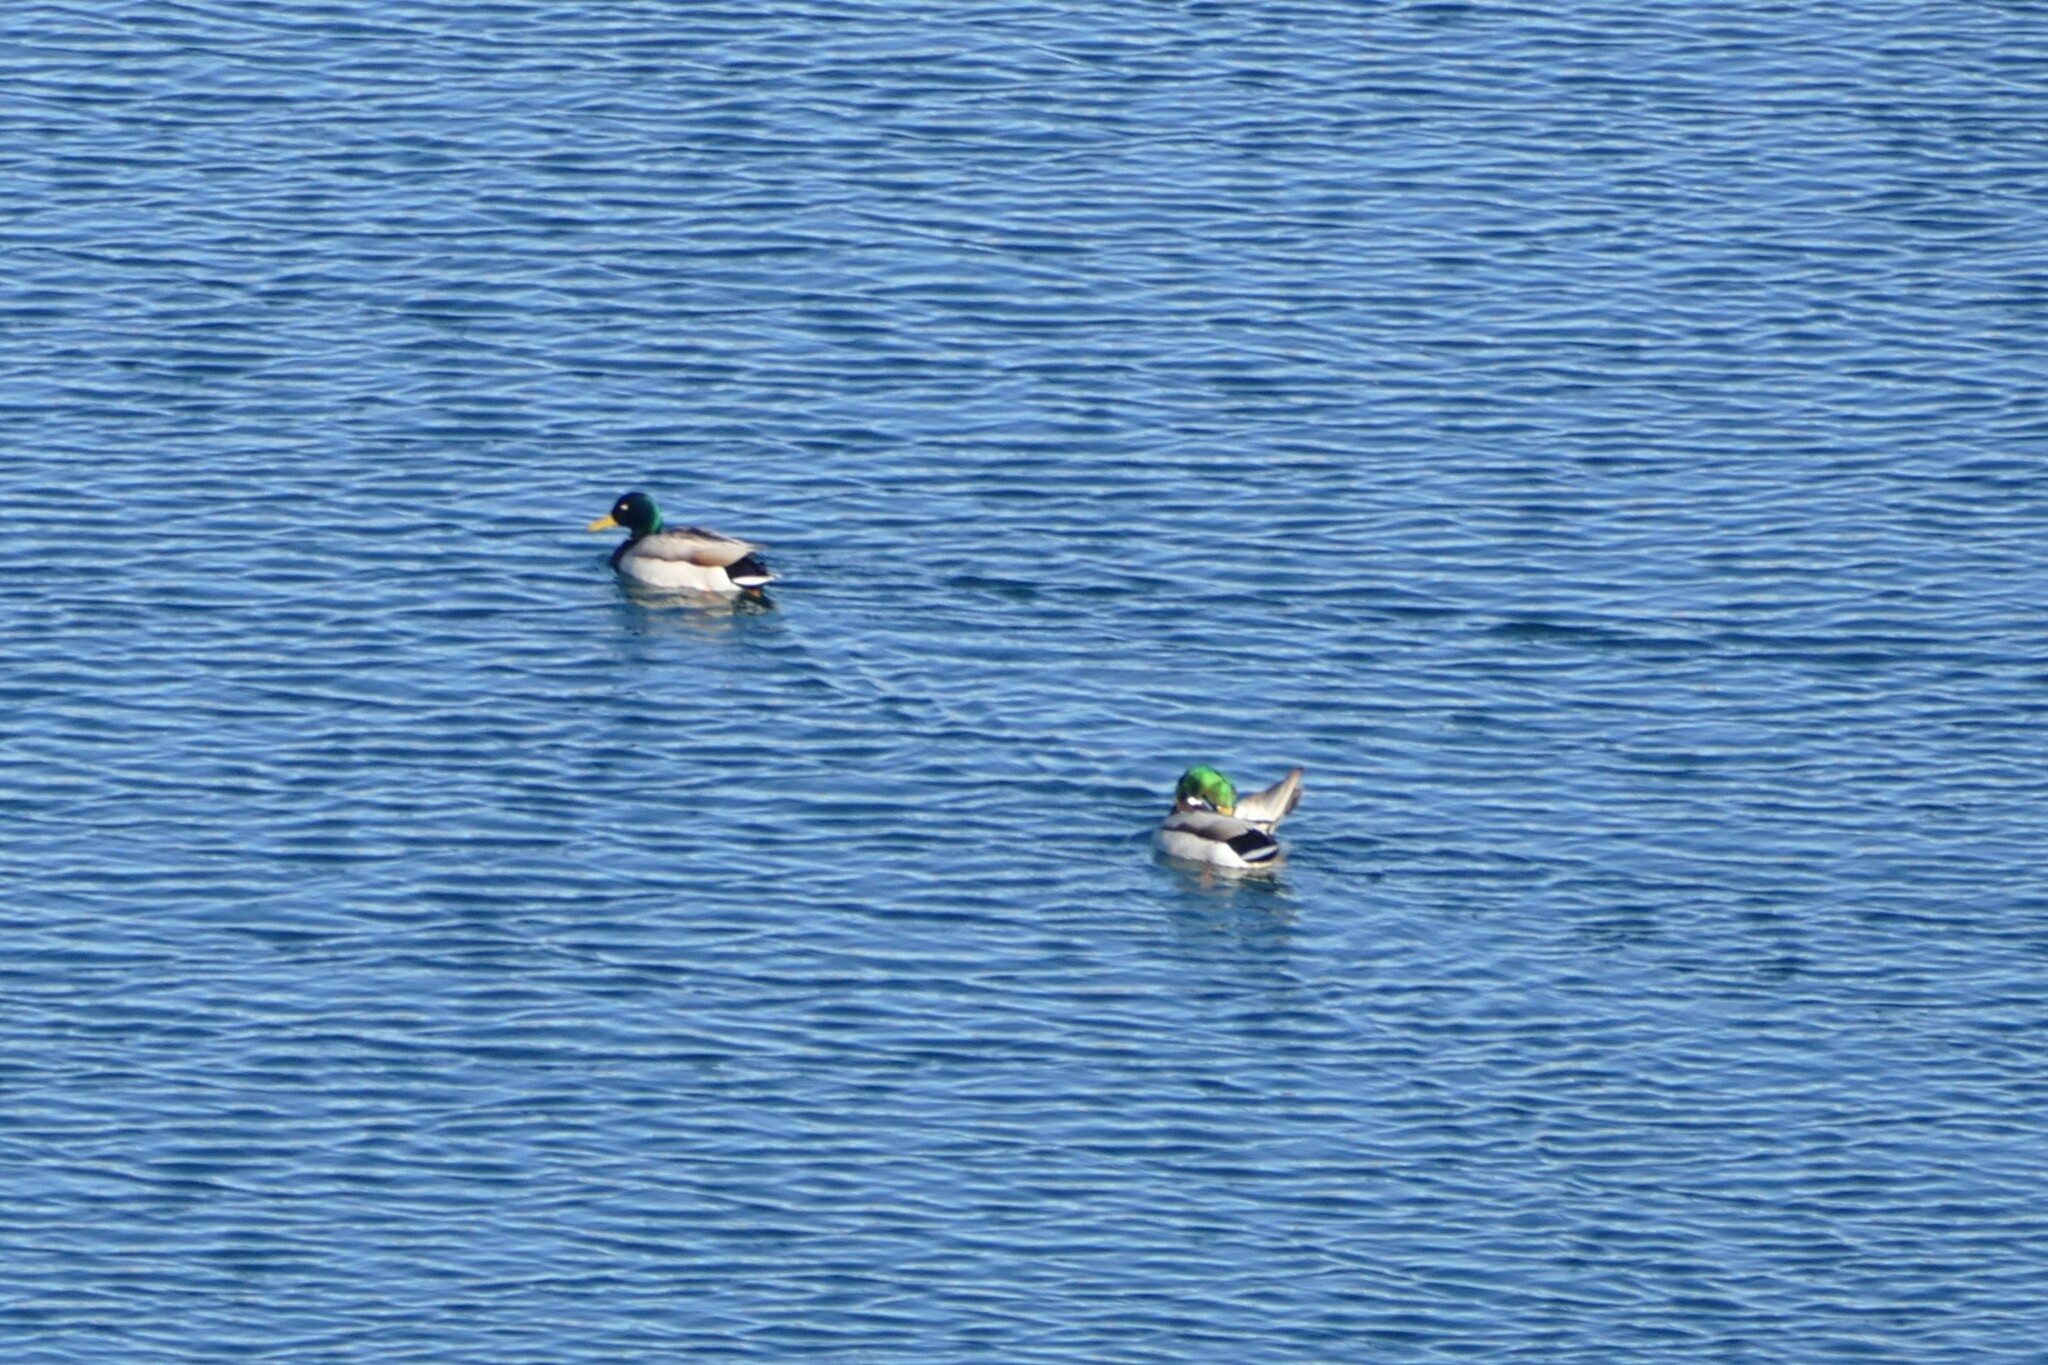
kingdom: Animalia
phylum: Chordata
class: Aves
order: Anseriformes
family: Anatidae
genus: Anas
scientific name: Anas platyrhynchos
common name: Mallard
